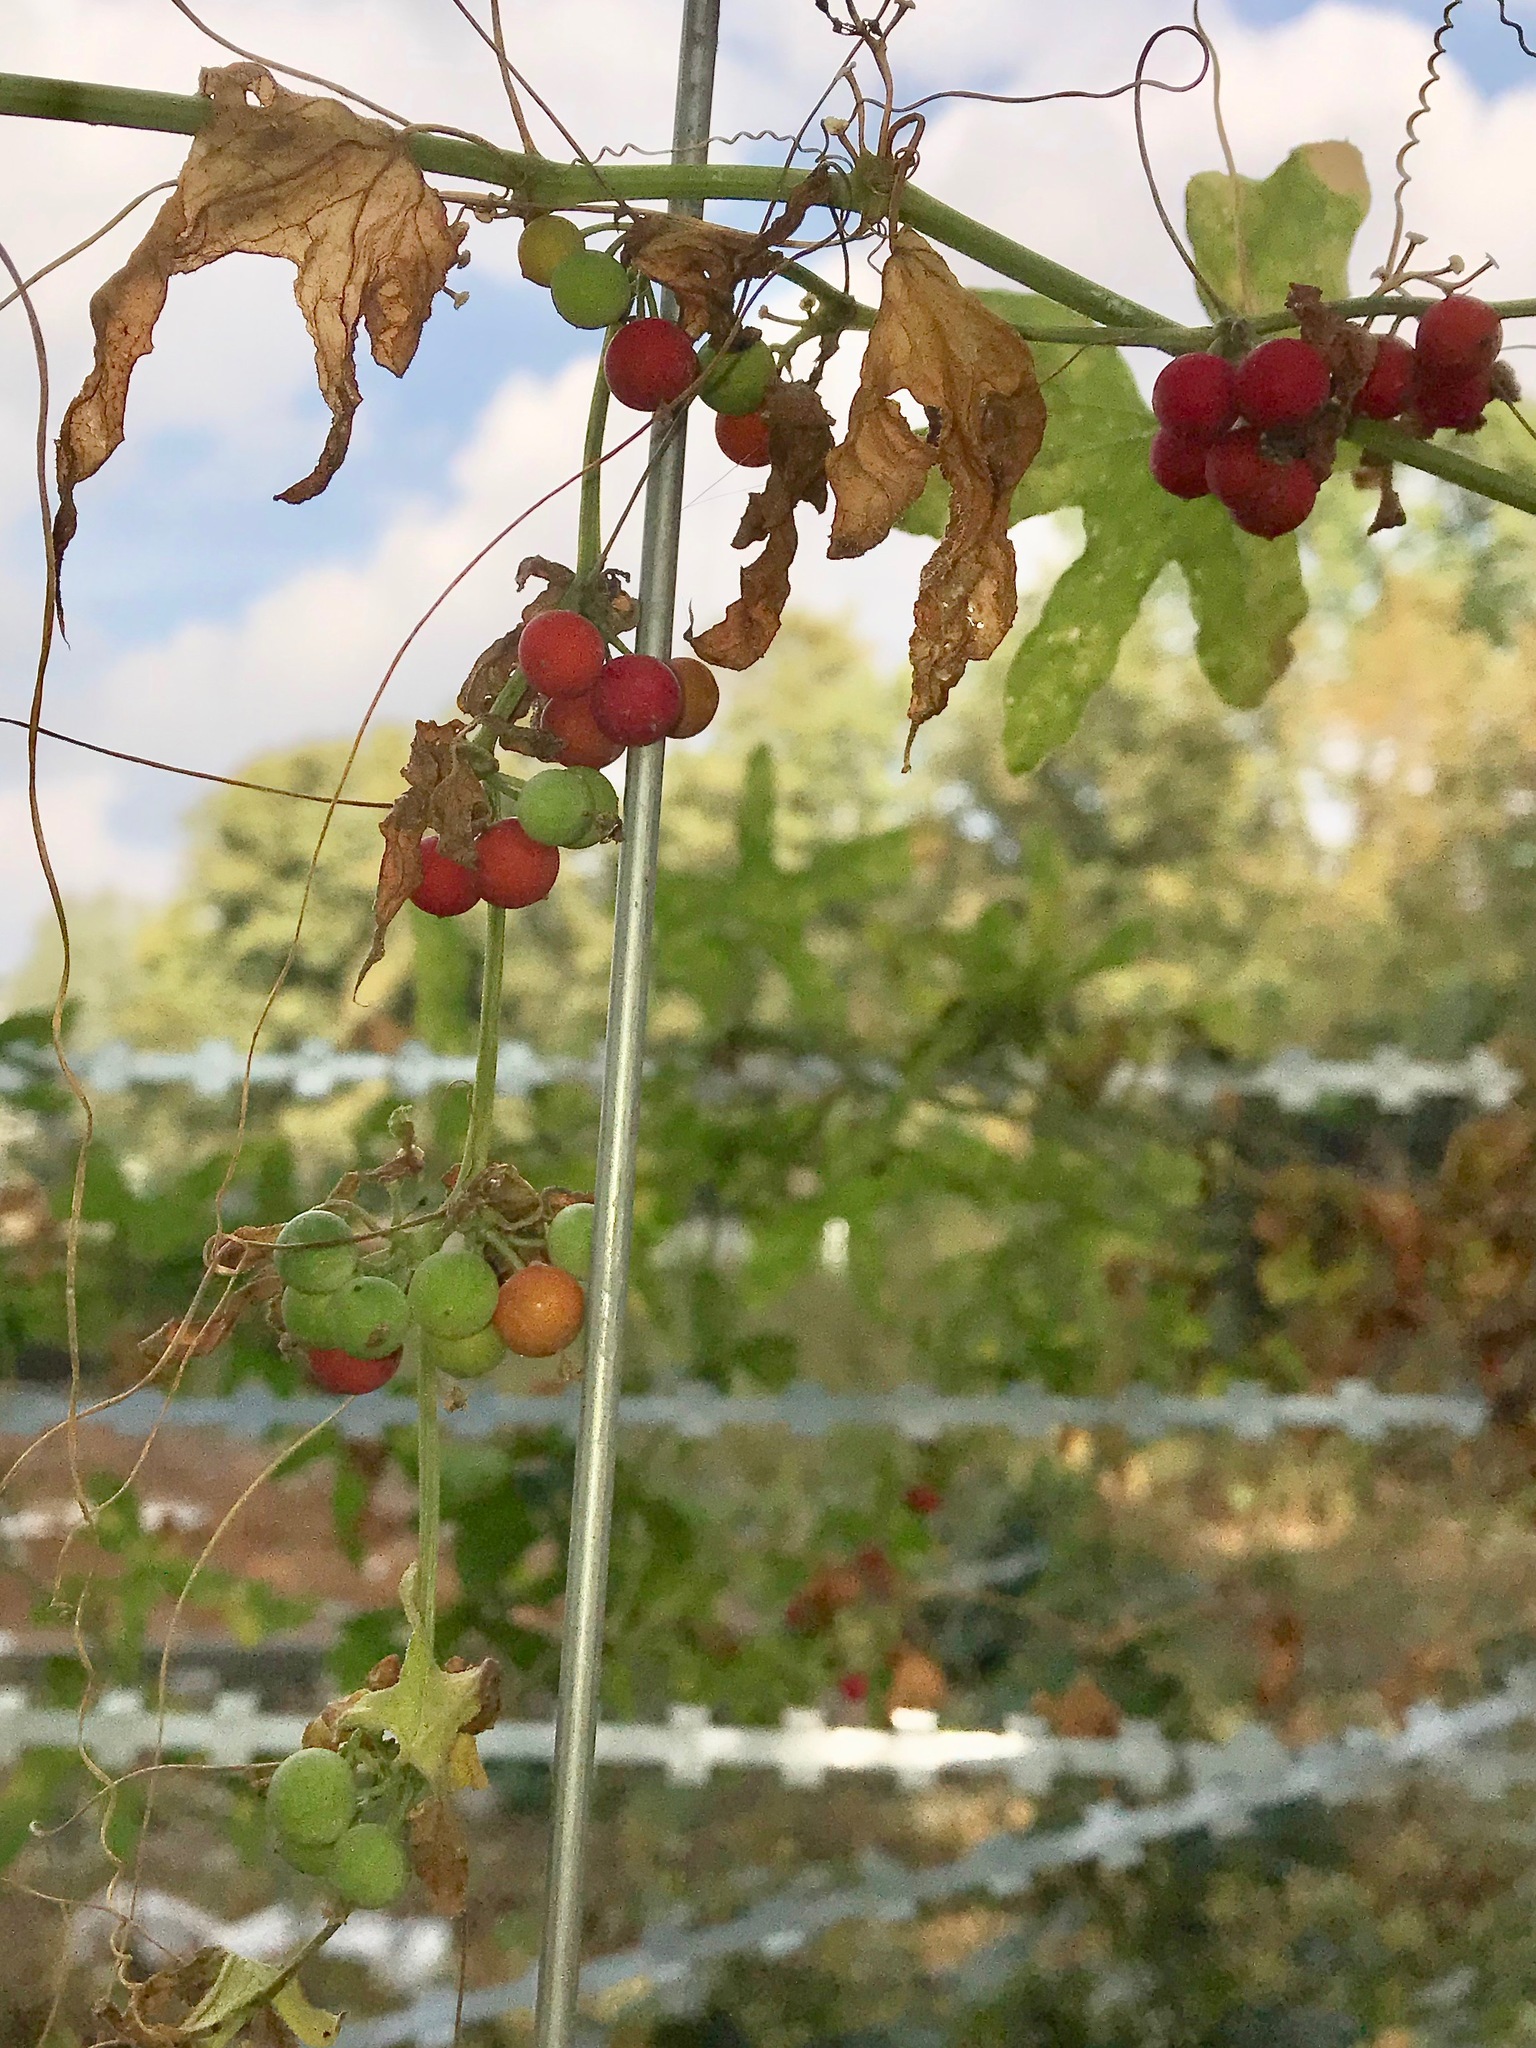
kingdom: Plantae
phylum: Tracheophyta
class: Magnoliopsida
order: Cucurbitales
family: Cucurbitaceae
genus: Bryonia
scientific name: Bryonia dioica
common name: White bryony
